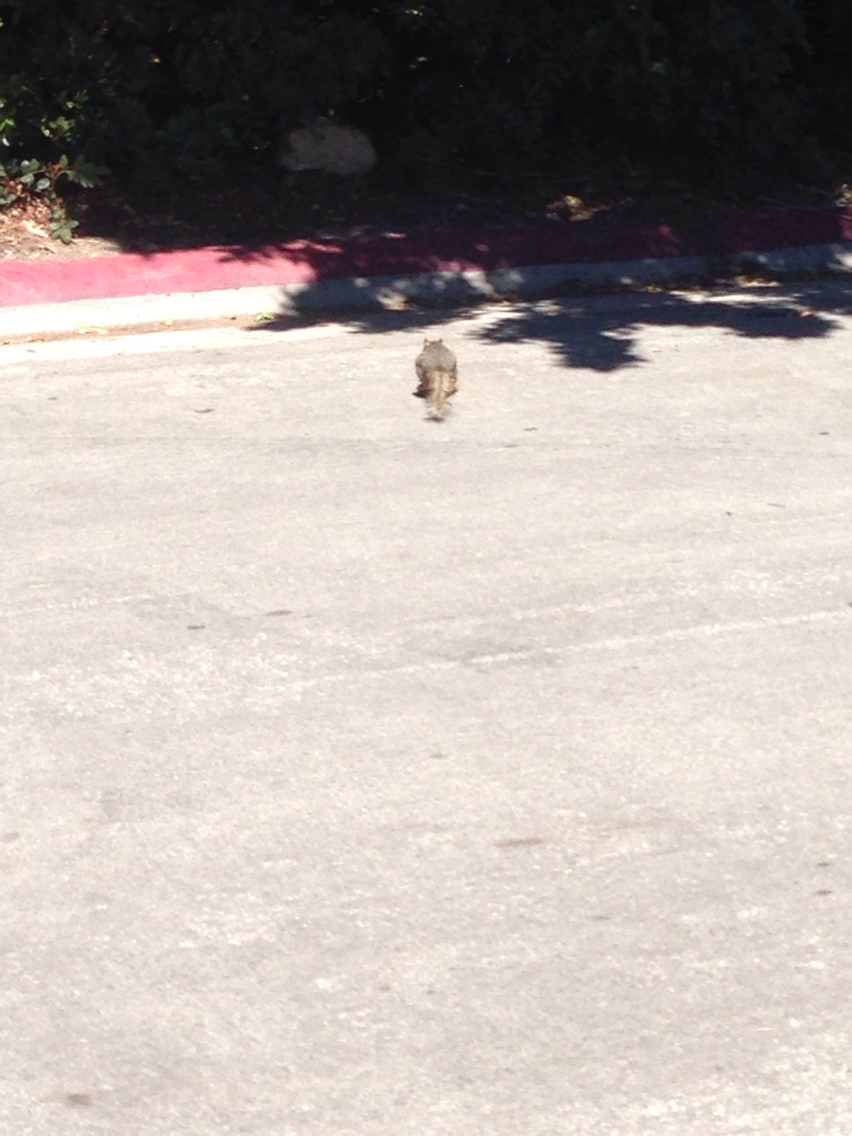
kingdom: Animalia
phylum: Chordata
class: Mammalia
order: Rodentia
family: Sciuridae
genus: Sciurus
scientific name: Sciurus niger
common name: Fox squirrel
